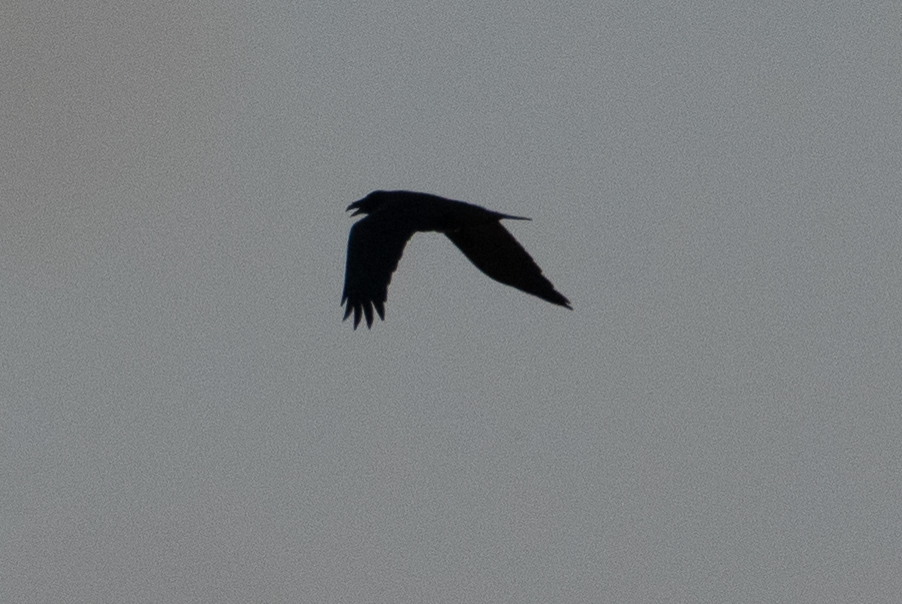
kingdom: Animalia
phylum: Chordata
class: Aves
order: Passeriformes
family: Corvidae
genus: Corvus
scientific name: Corvus corax
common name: Common raven
